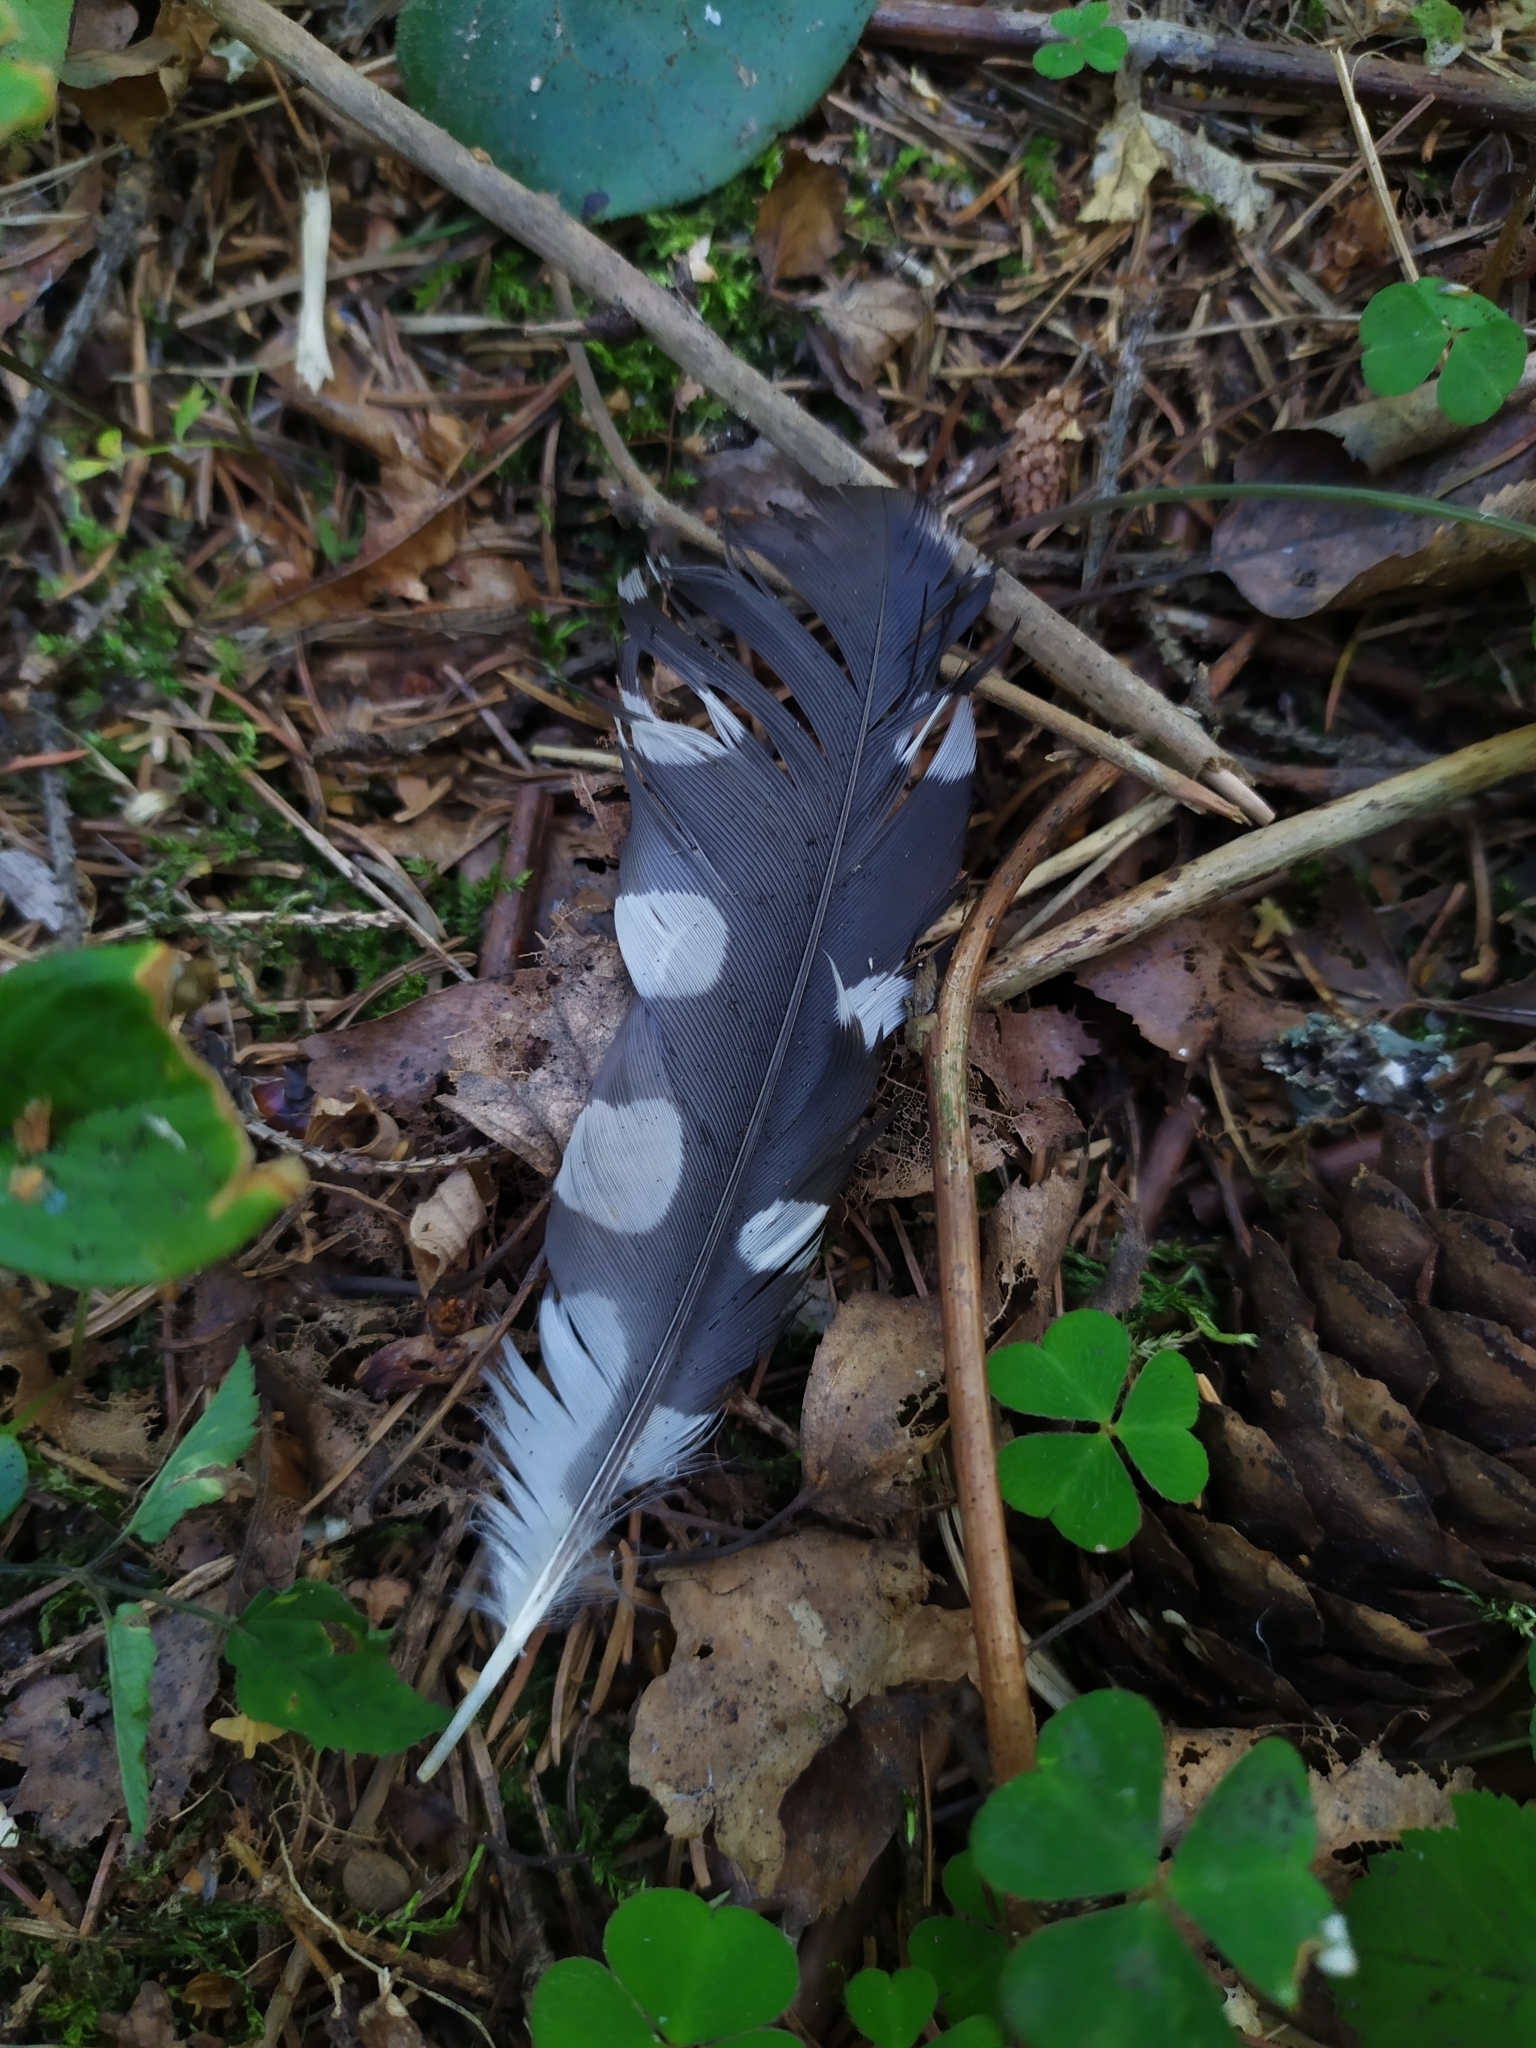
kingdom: Animalia
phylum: Chordata
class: Aves
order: Piciformes
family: Picidae
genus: Dendrocopos
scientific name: Dendrocopos major
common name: Great spotted woodpecker
